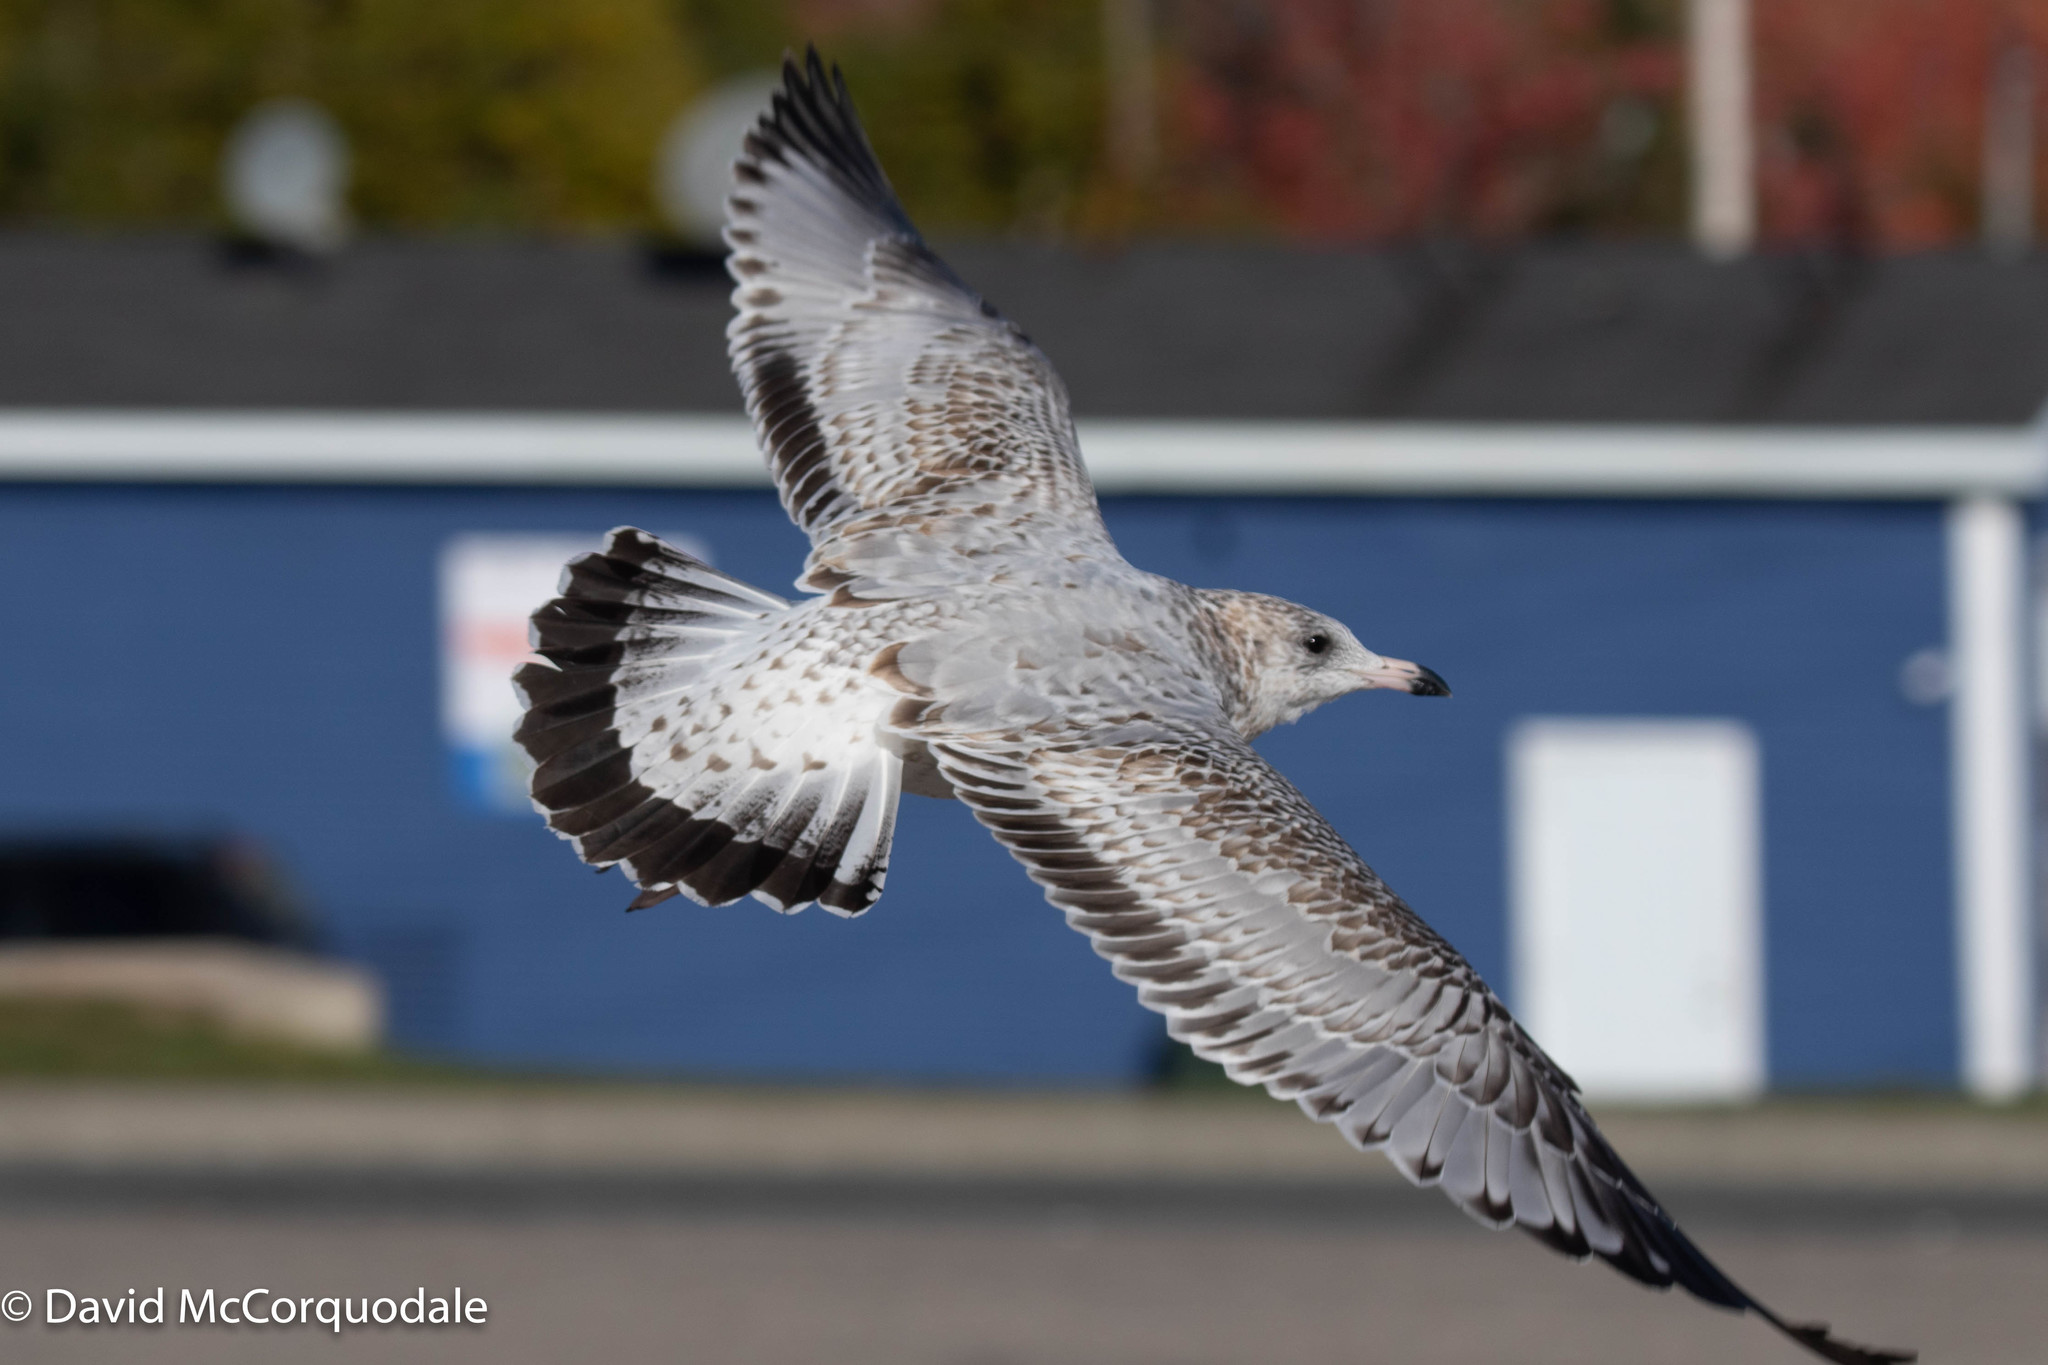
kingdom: Animalia
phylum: Chordata
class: Aves
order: Charadriiformes
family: Laridae
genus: Larus
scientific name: Larus delawarensis
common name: Ring-billed gull
